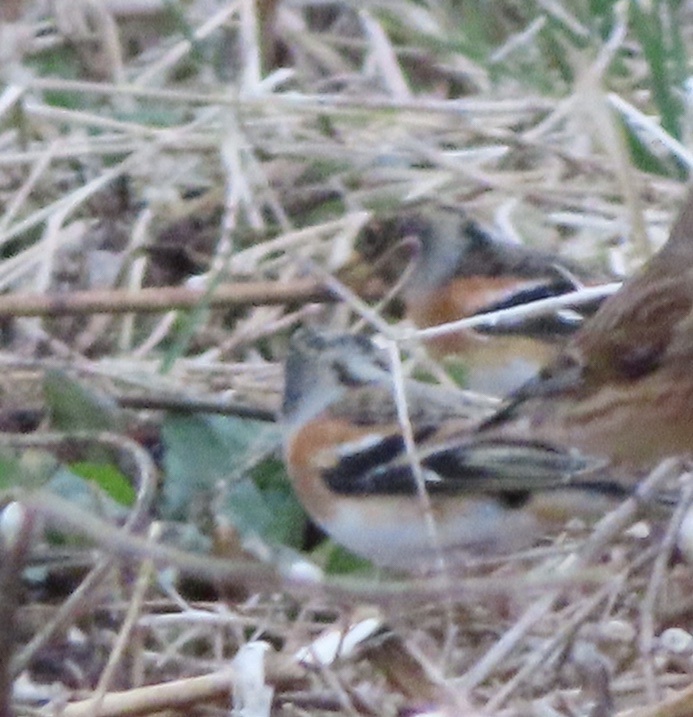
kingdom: Animalia
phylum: Chordata
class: Aves
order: Passeriformes
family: Fringillidae
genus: Fringilla
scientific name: Fringilla montifringilla
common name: Brambling
